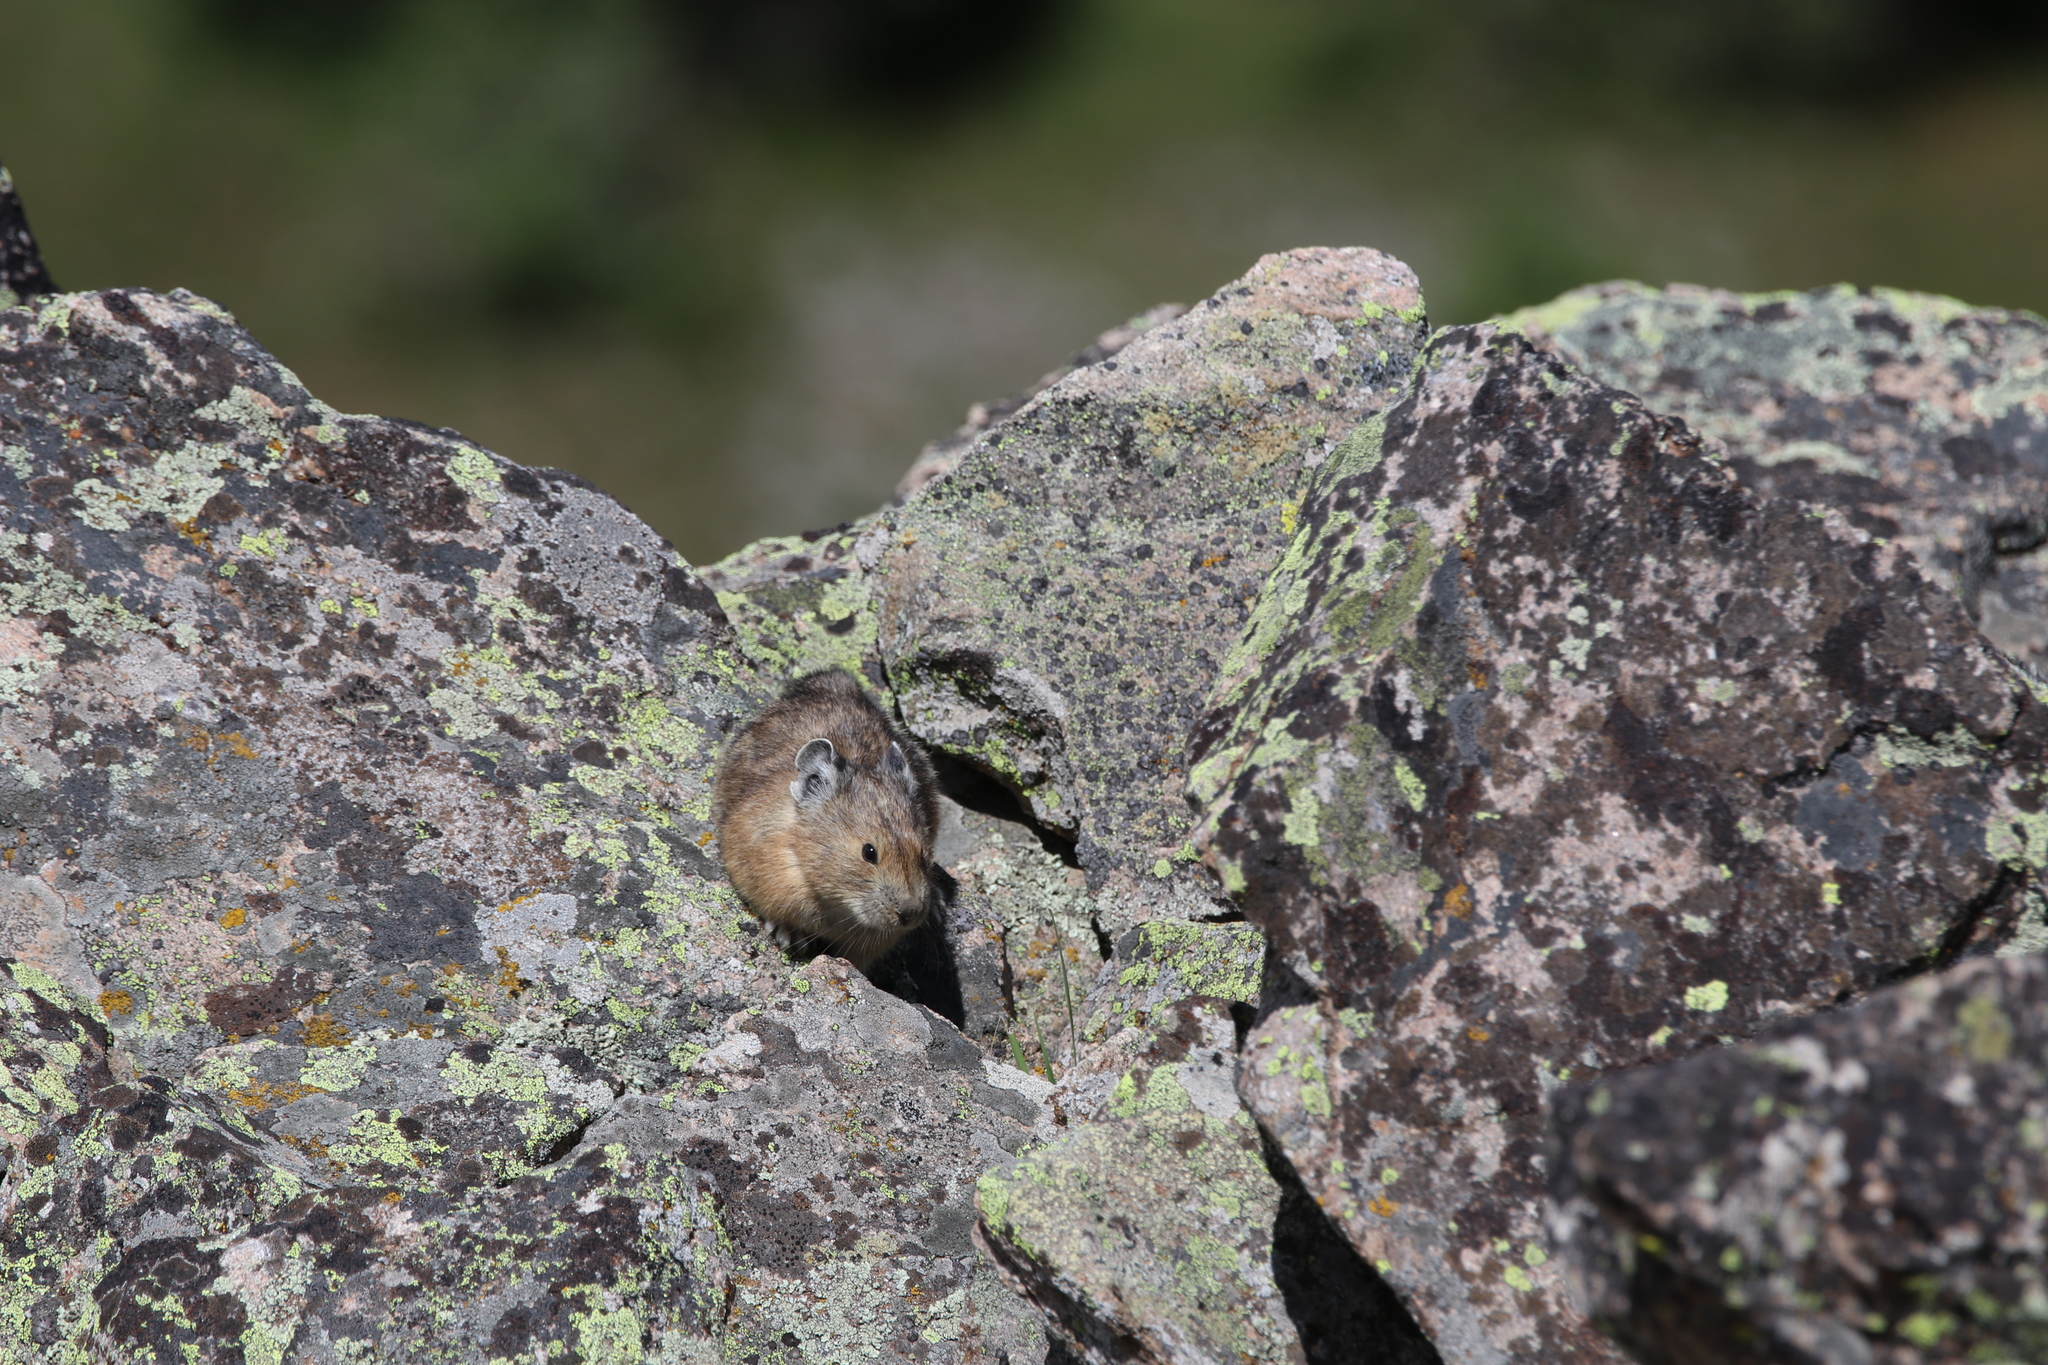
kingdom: Animalia
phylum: Chordata
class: Mammalia
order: Lagomorpha
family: Ochotonidae
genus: Ochotona
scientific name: Ochotona princeps
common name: American pika
